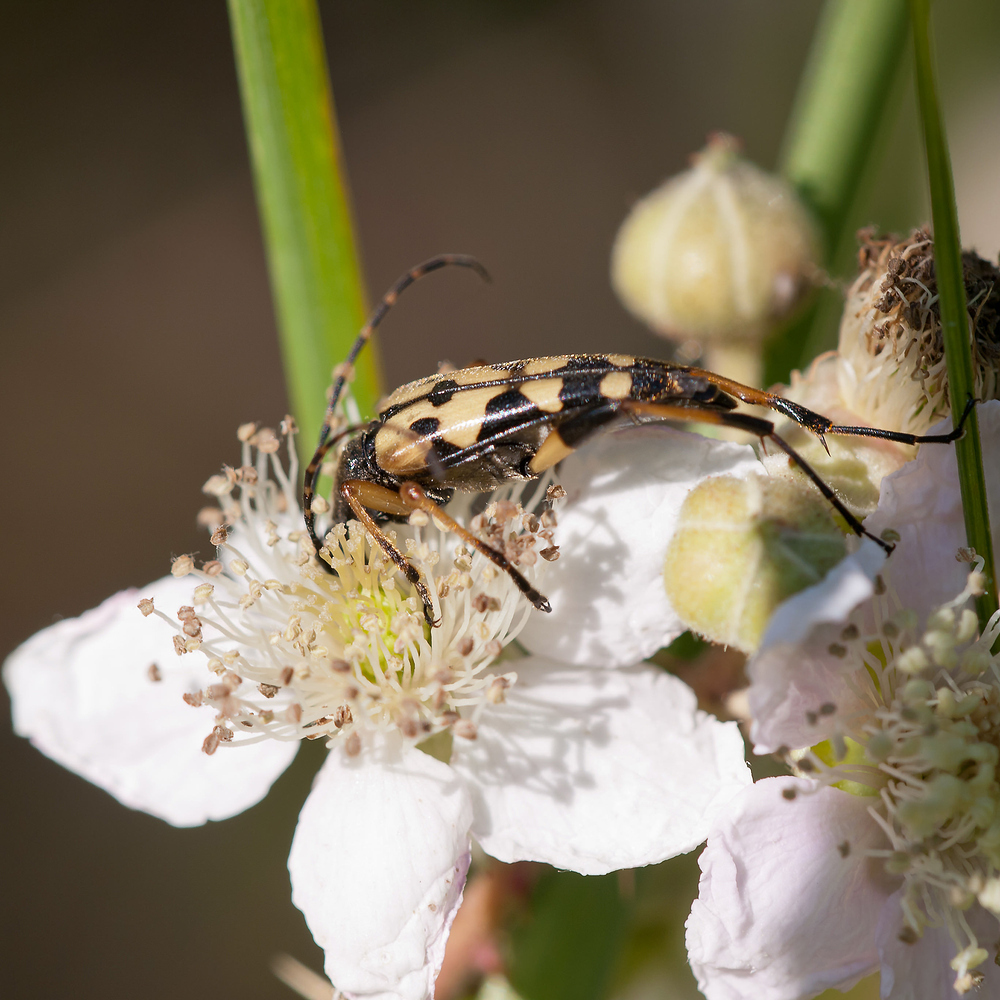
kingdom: Animalia
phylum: Arthropoda
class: Insecta
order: Coleoptera
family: Cerambycidae
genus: Rutpela
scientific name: Rutpela maculata
